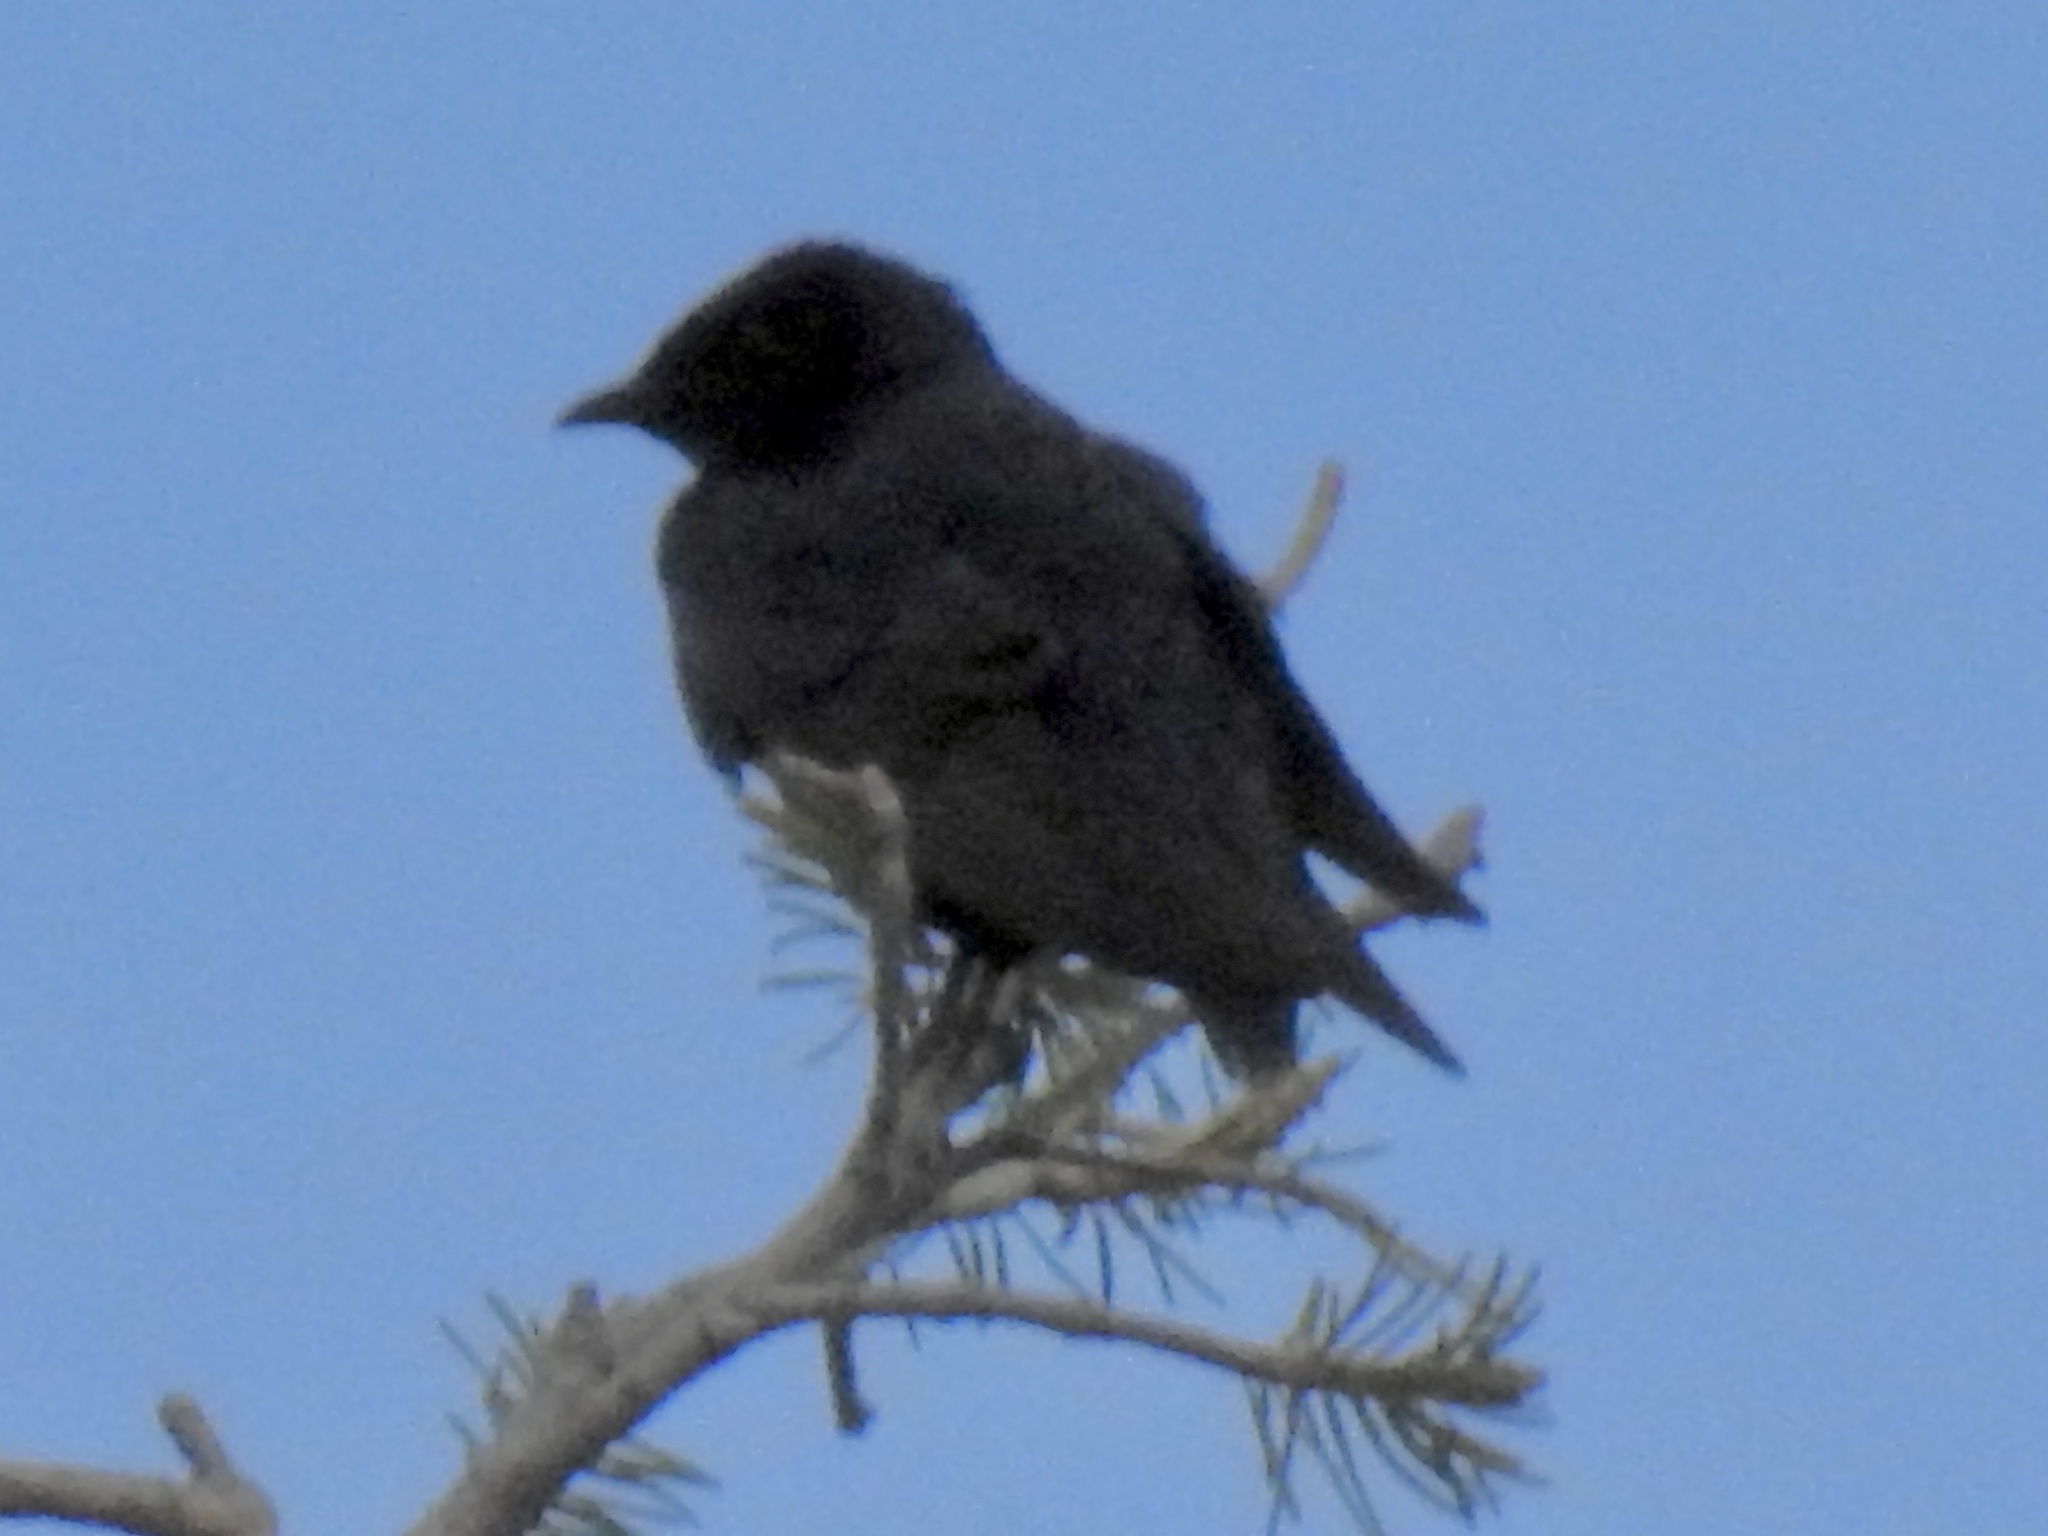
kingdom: Animalia
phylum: Chordata
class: Aves
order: Passeriformes
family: Hirundinidae
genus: Progne
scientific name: Progne subis
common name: Purple martin
